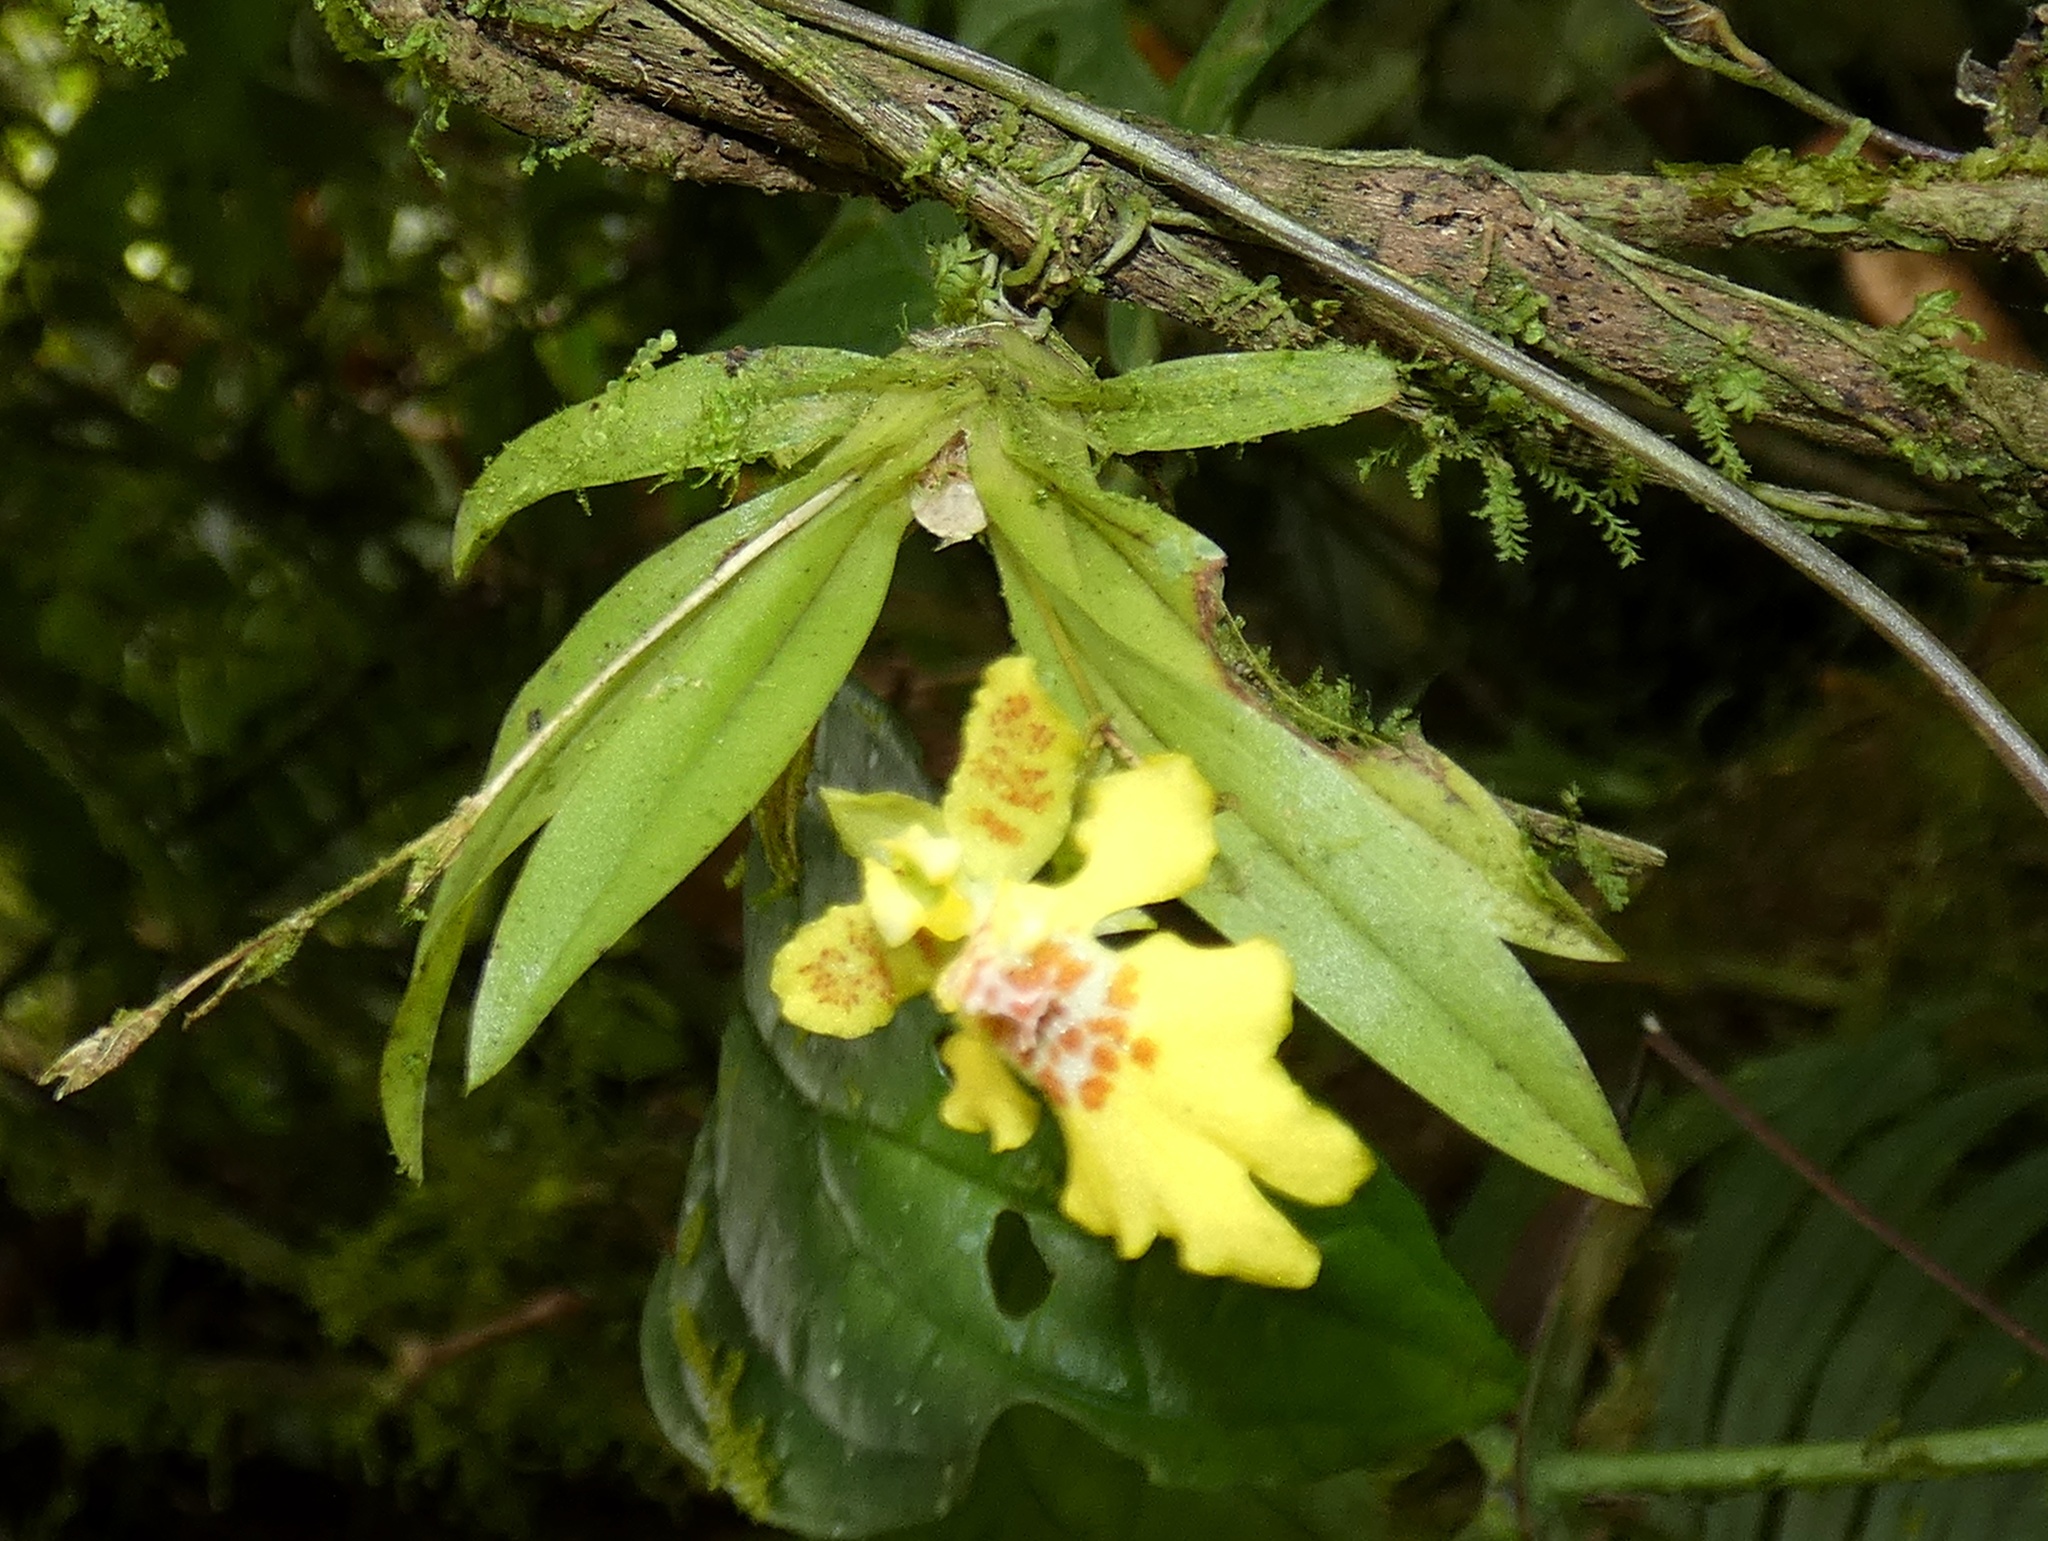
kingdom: Plantae
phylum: Tracheophyta
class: Liliopsida
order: Asparagales
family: Orchidaceae
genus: Erycina
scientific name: Erycina crista-galli
